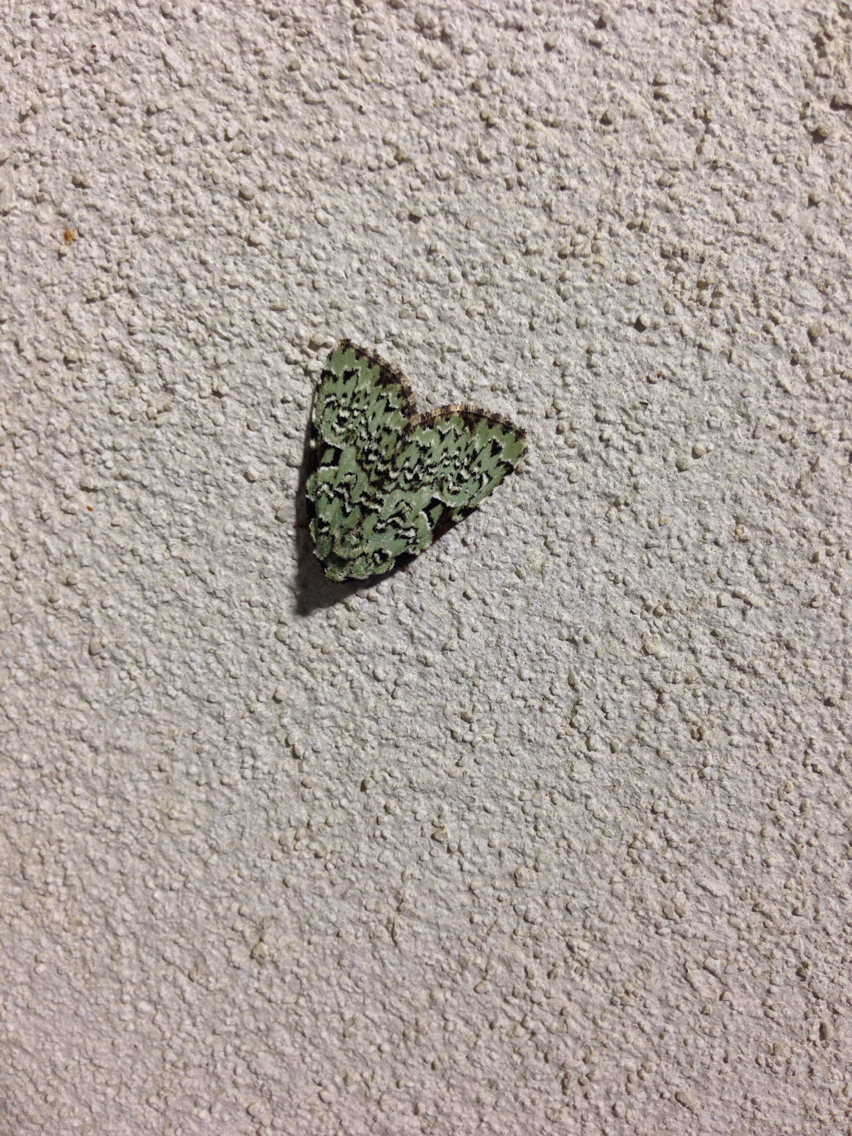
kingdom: Animalia
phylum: Arthropoda
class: Insecta
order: Lepidoptera
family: Noctuidae
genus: Leuconycta
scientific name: Leuconycta diphteroides
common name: Green leuconycta moth
